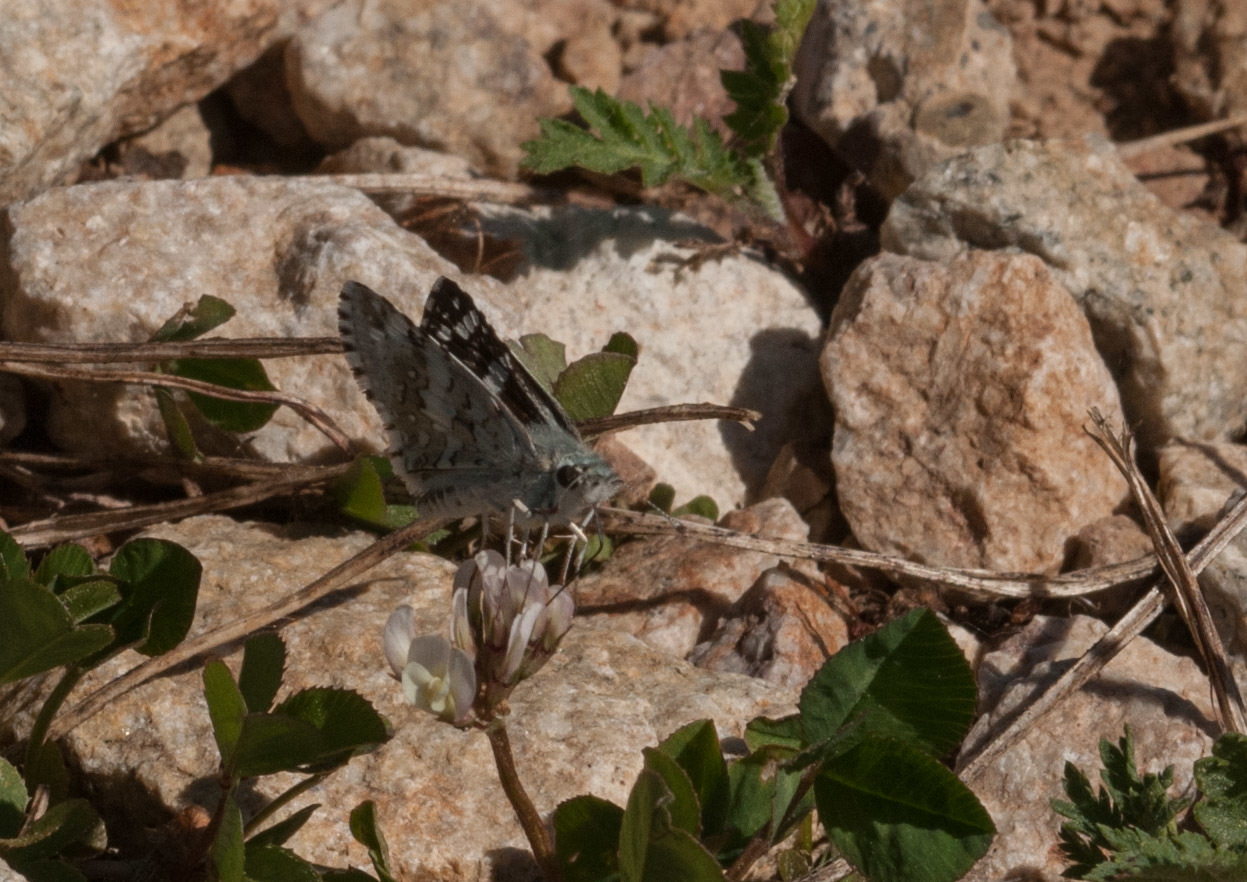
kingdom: Animalia
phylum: Arthropoda
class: Insecta
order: Lepidoptera
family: Hesperiidae
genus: Burnsius
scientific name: Burnsius communis
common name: Common checkered-skipper
